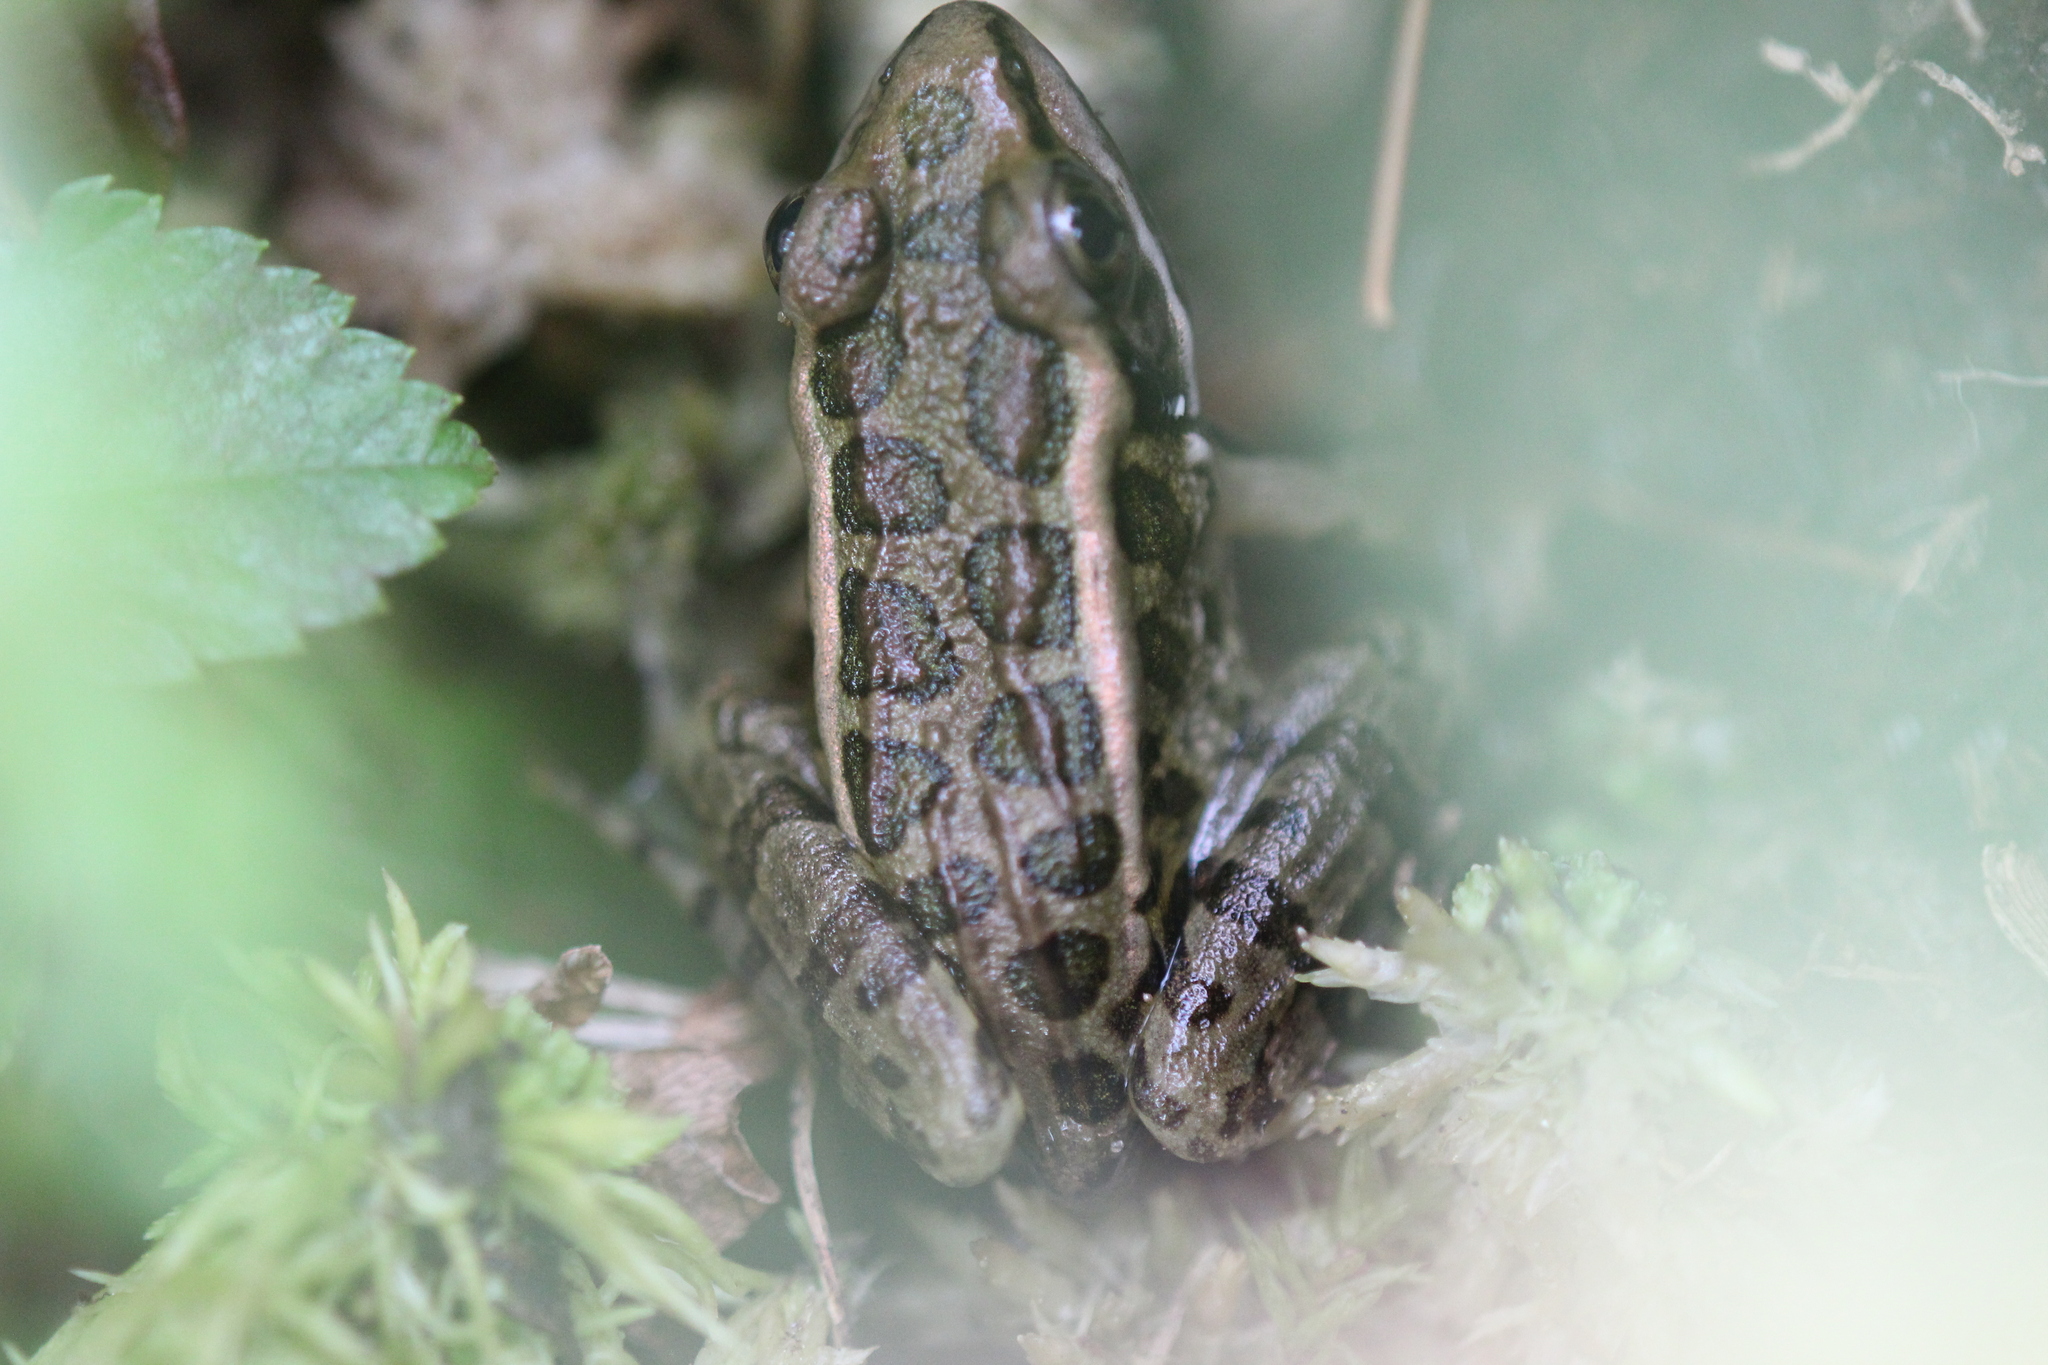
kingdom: Animalia
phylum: Chordata
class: Amphibia
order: Anura
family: Ranidae
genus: Lithobates
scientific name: Lithobates palustris
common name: Pickerel frog
